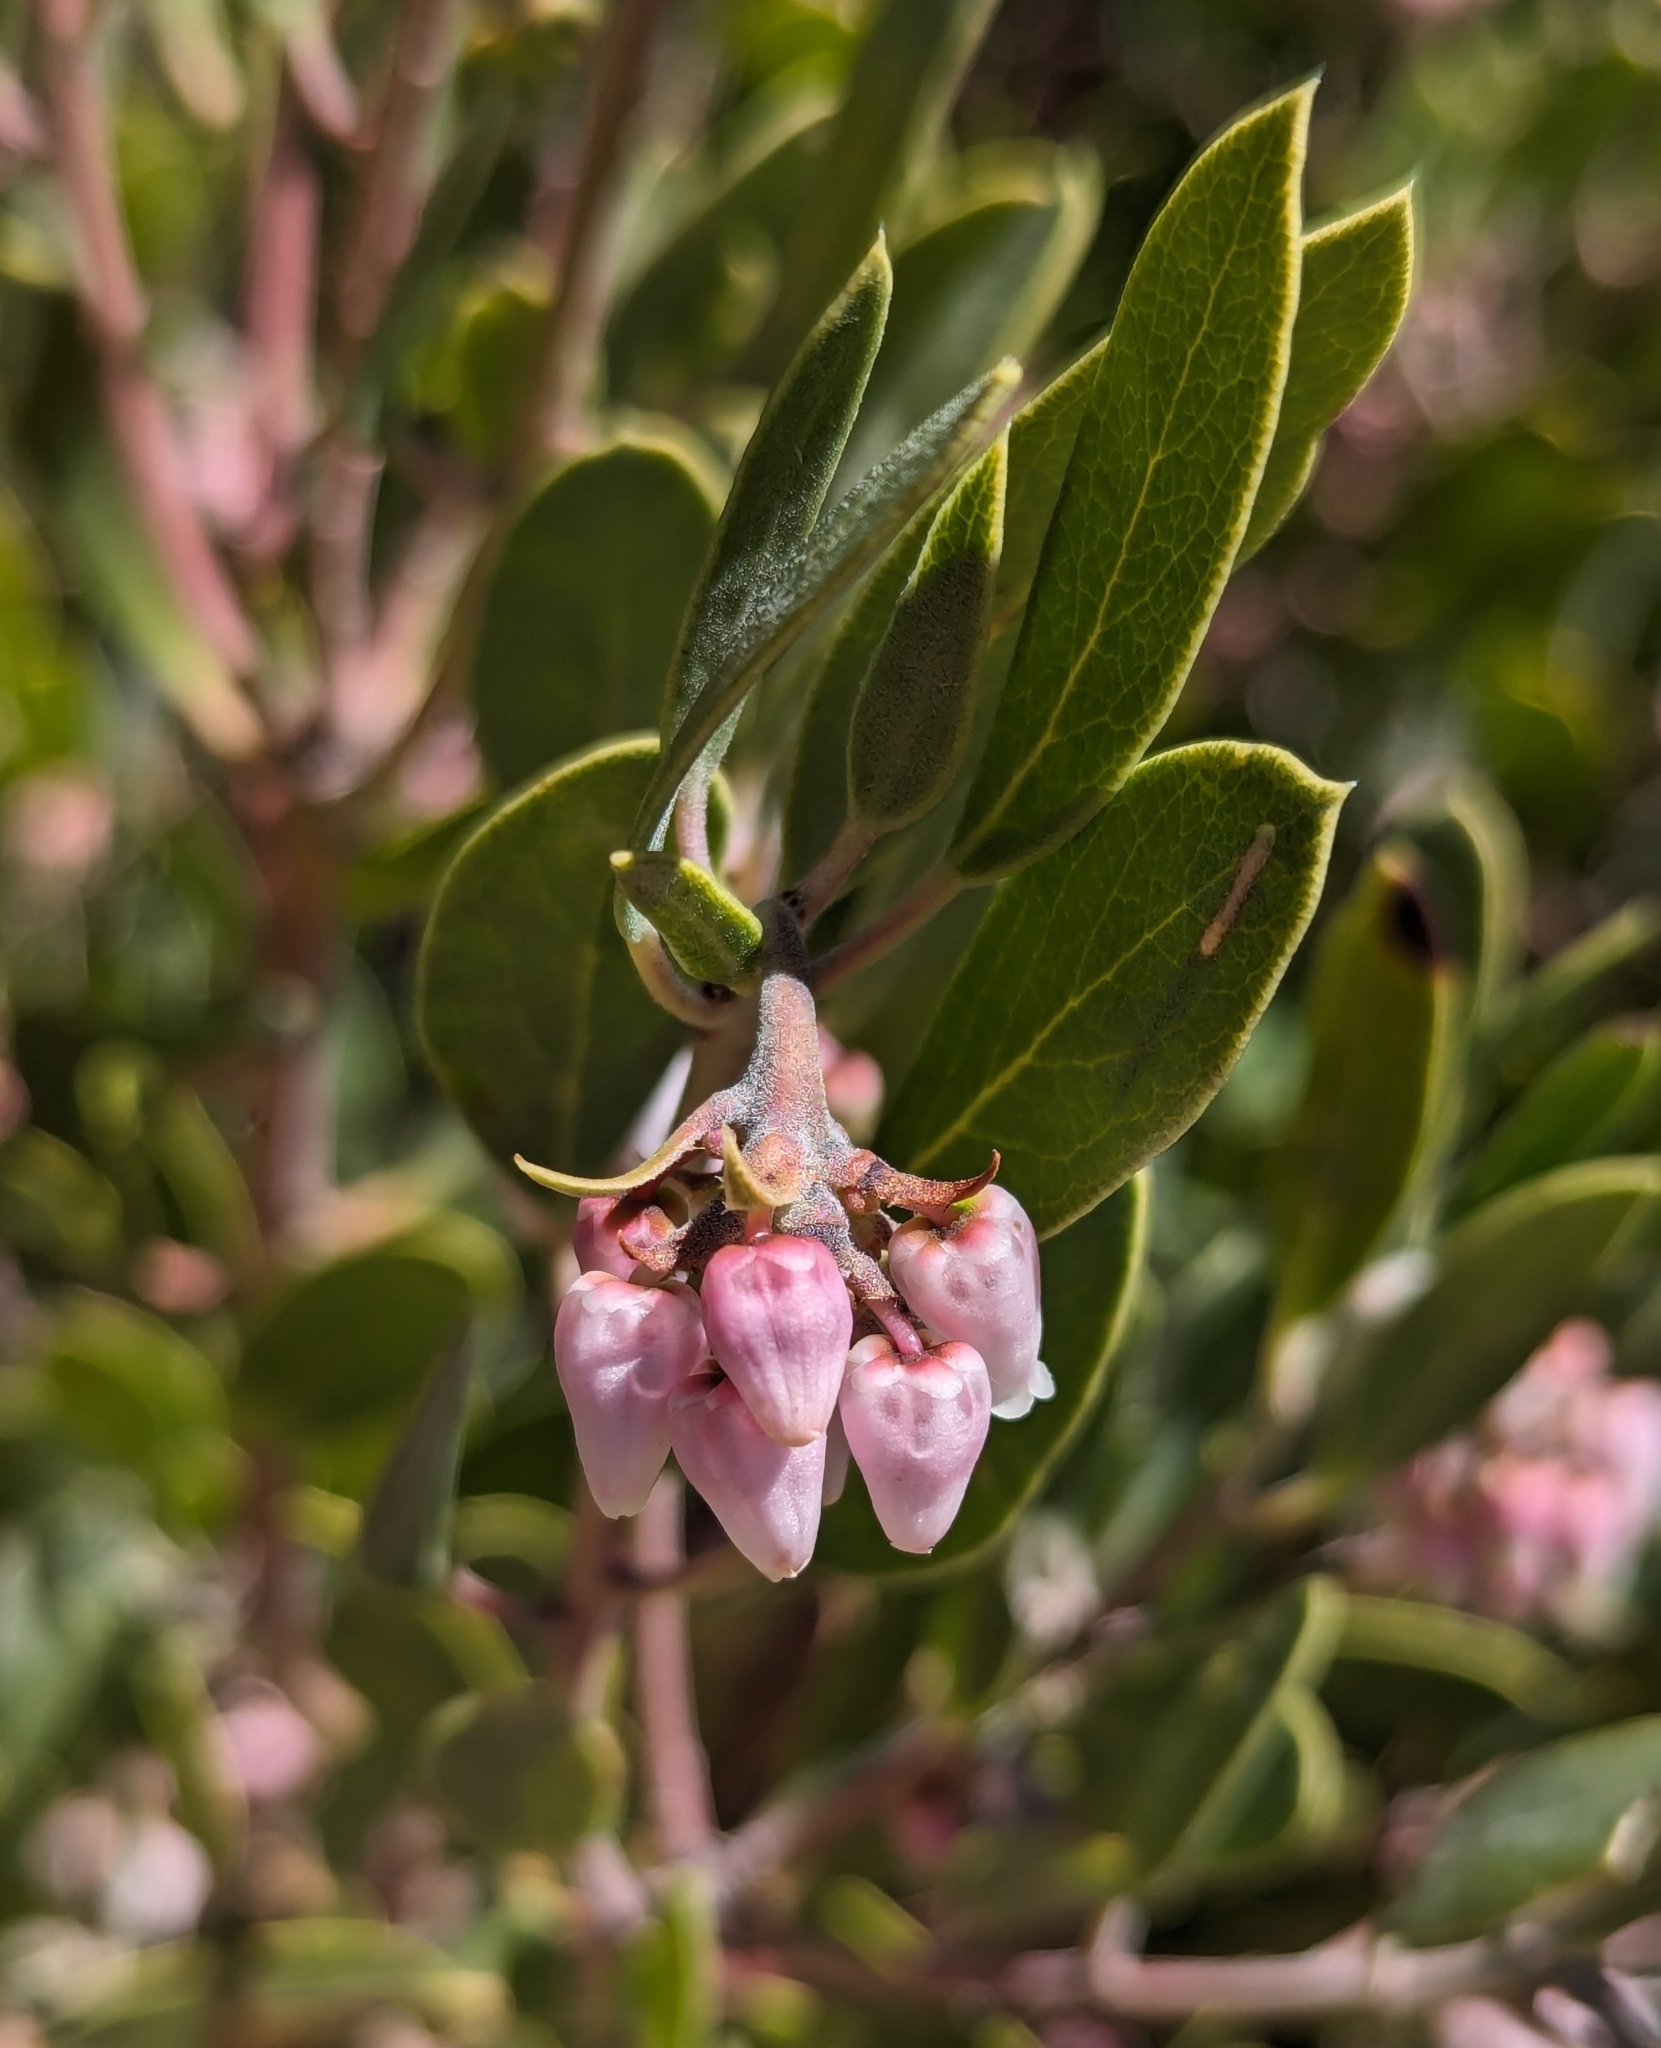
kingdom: Plantae
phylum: Tracheophyta
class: Magnoliopsida
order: Ericales
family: Ericaceae
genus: Arctostaphylos
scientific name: Arctostaphylos pungens
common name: Mexican manzanita
